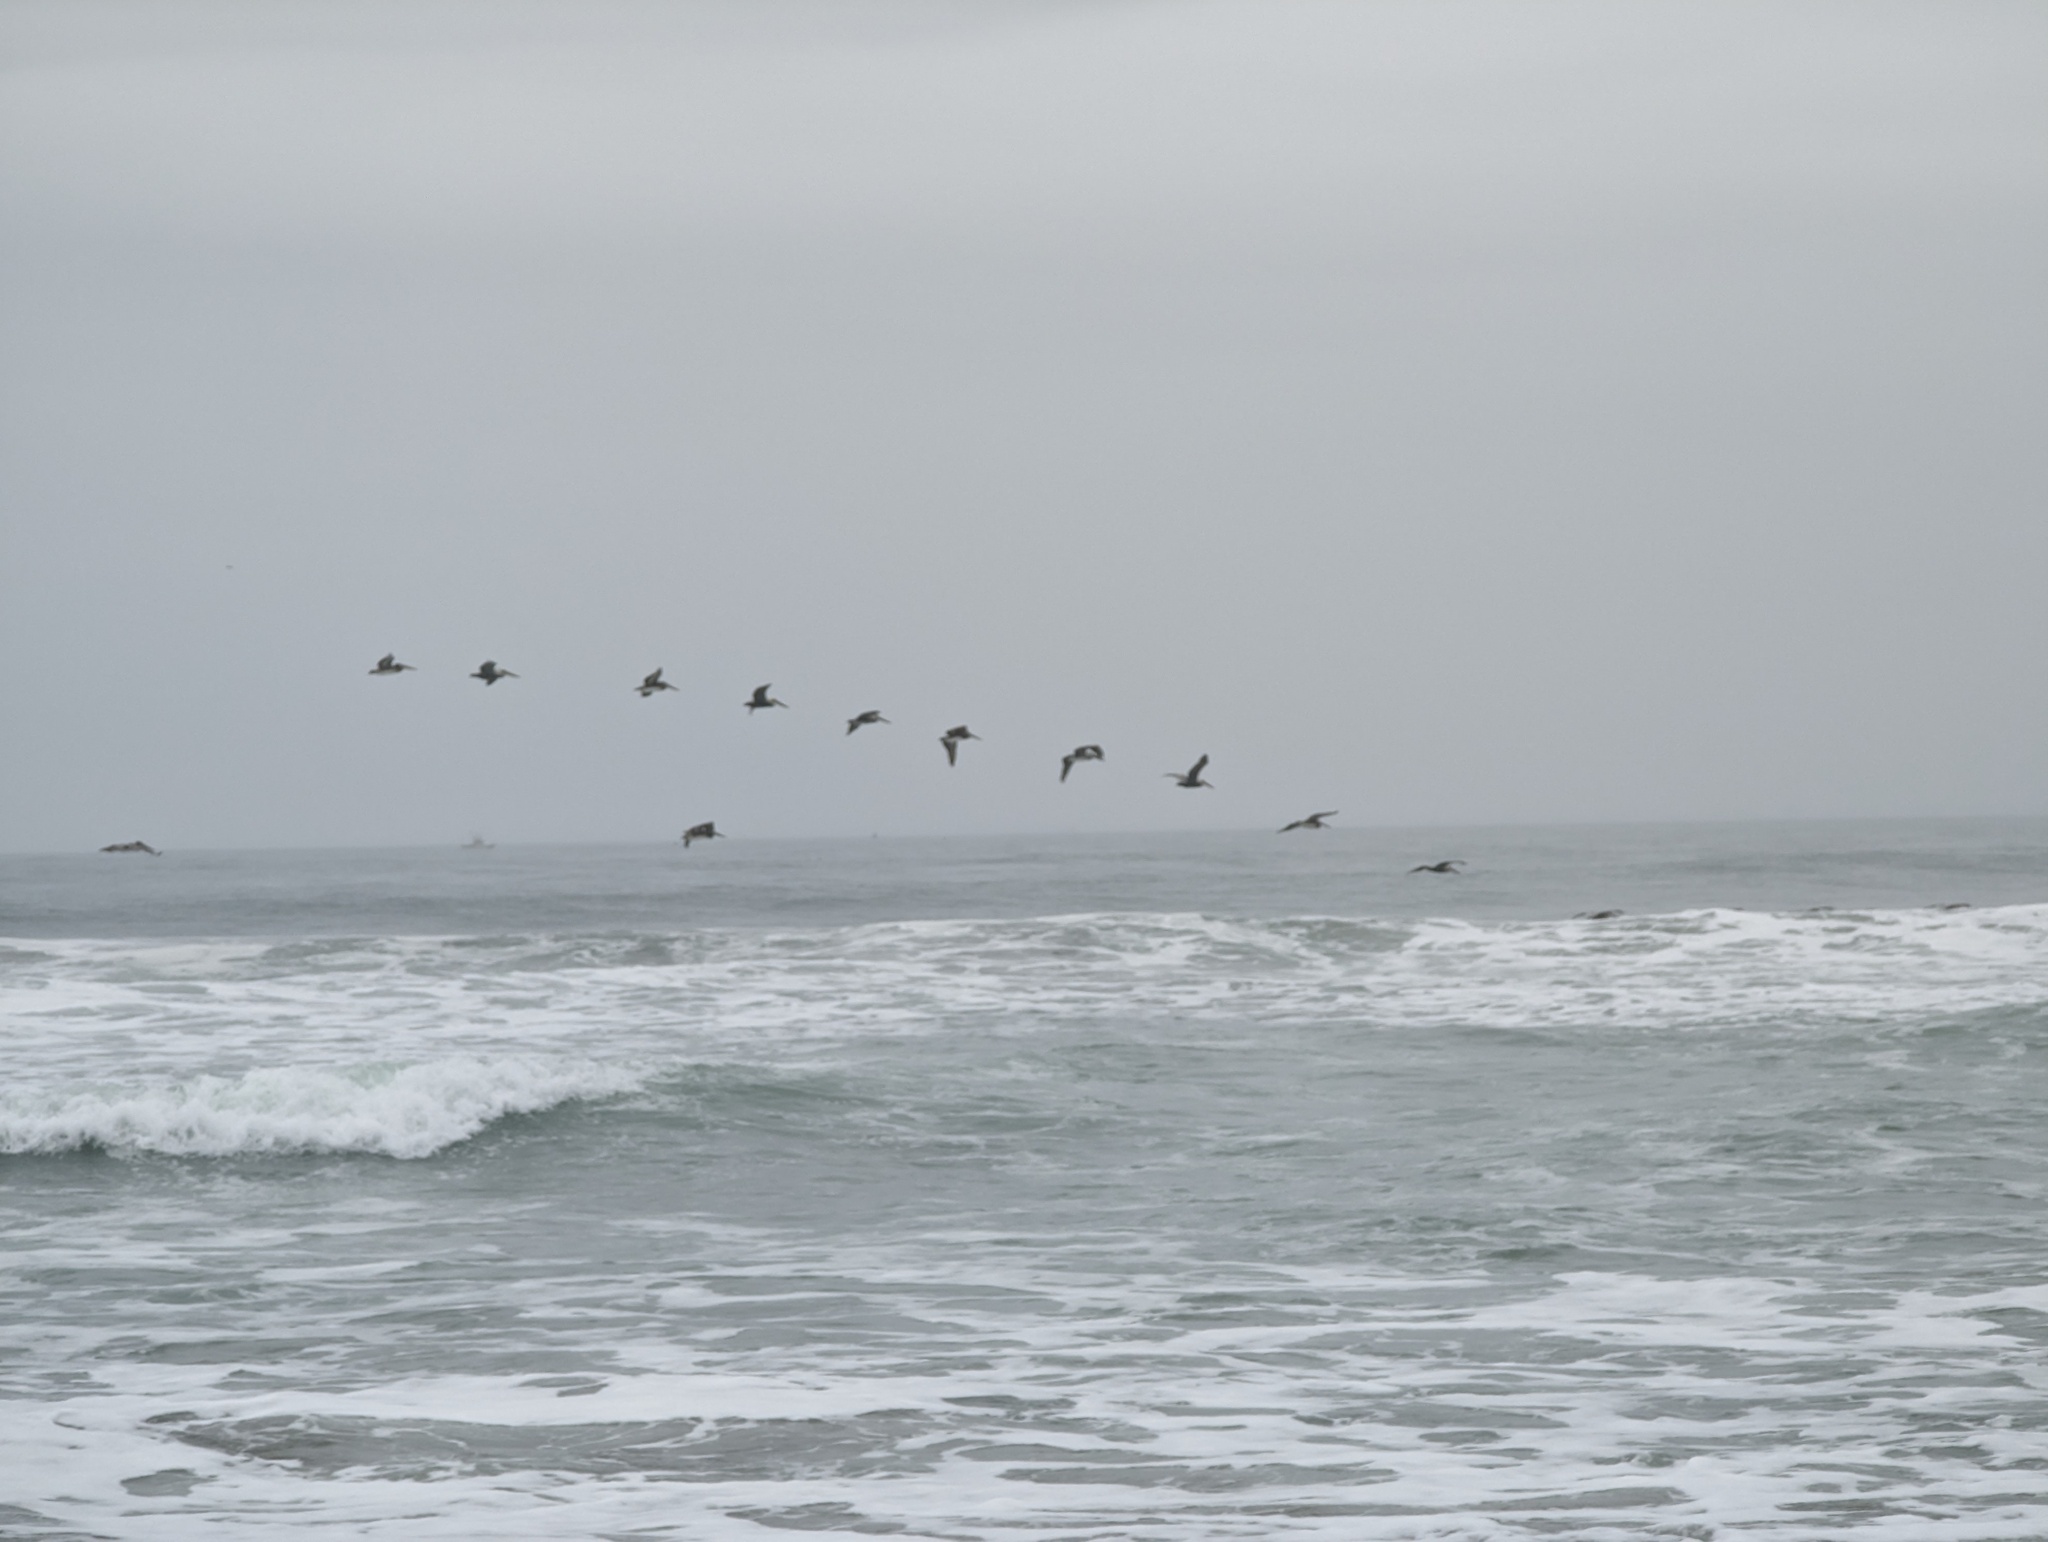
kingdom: Animalia
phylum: Chordata
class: Aves
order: Pelecaniformes
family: Pelecanidae
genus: Pelecanus
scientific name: Pelecanus occidentalis
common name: Brown pelican
